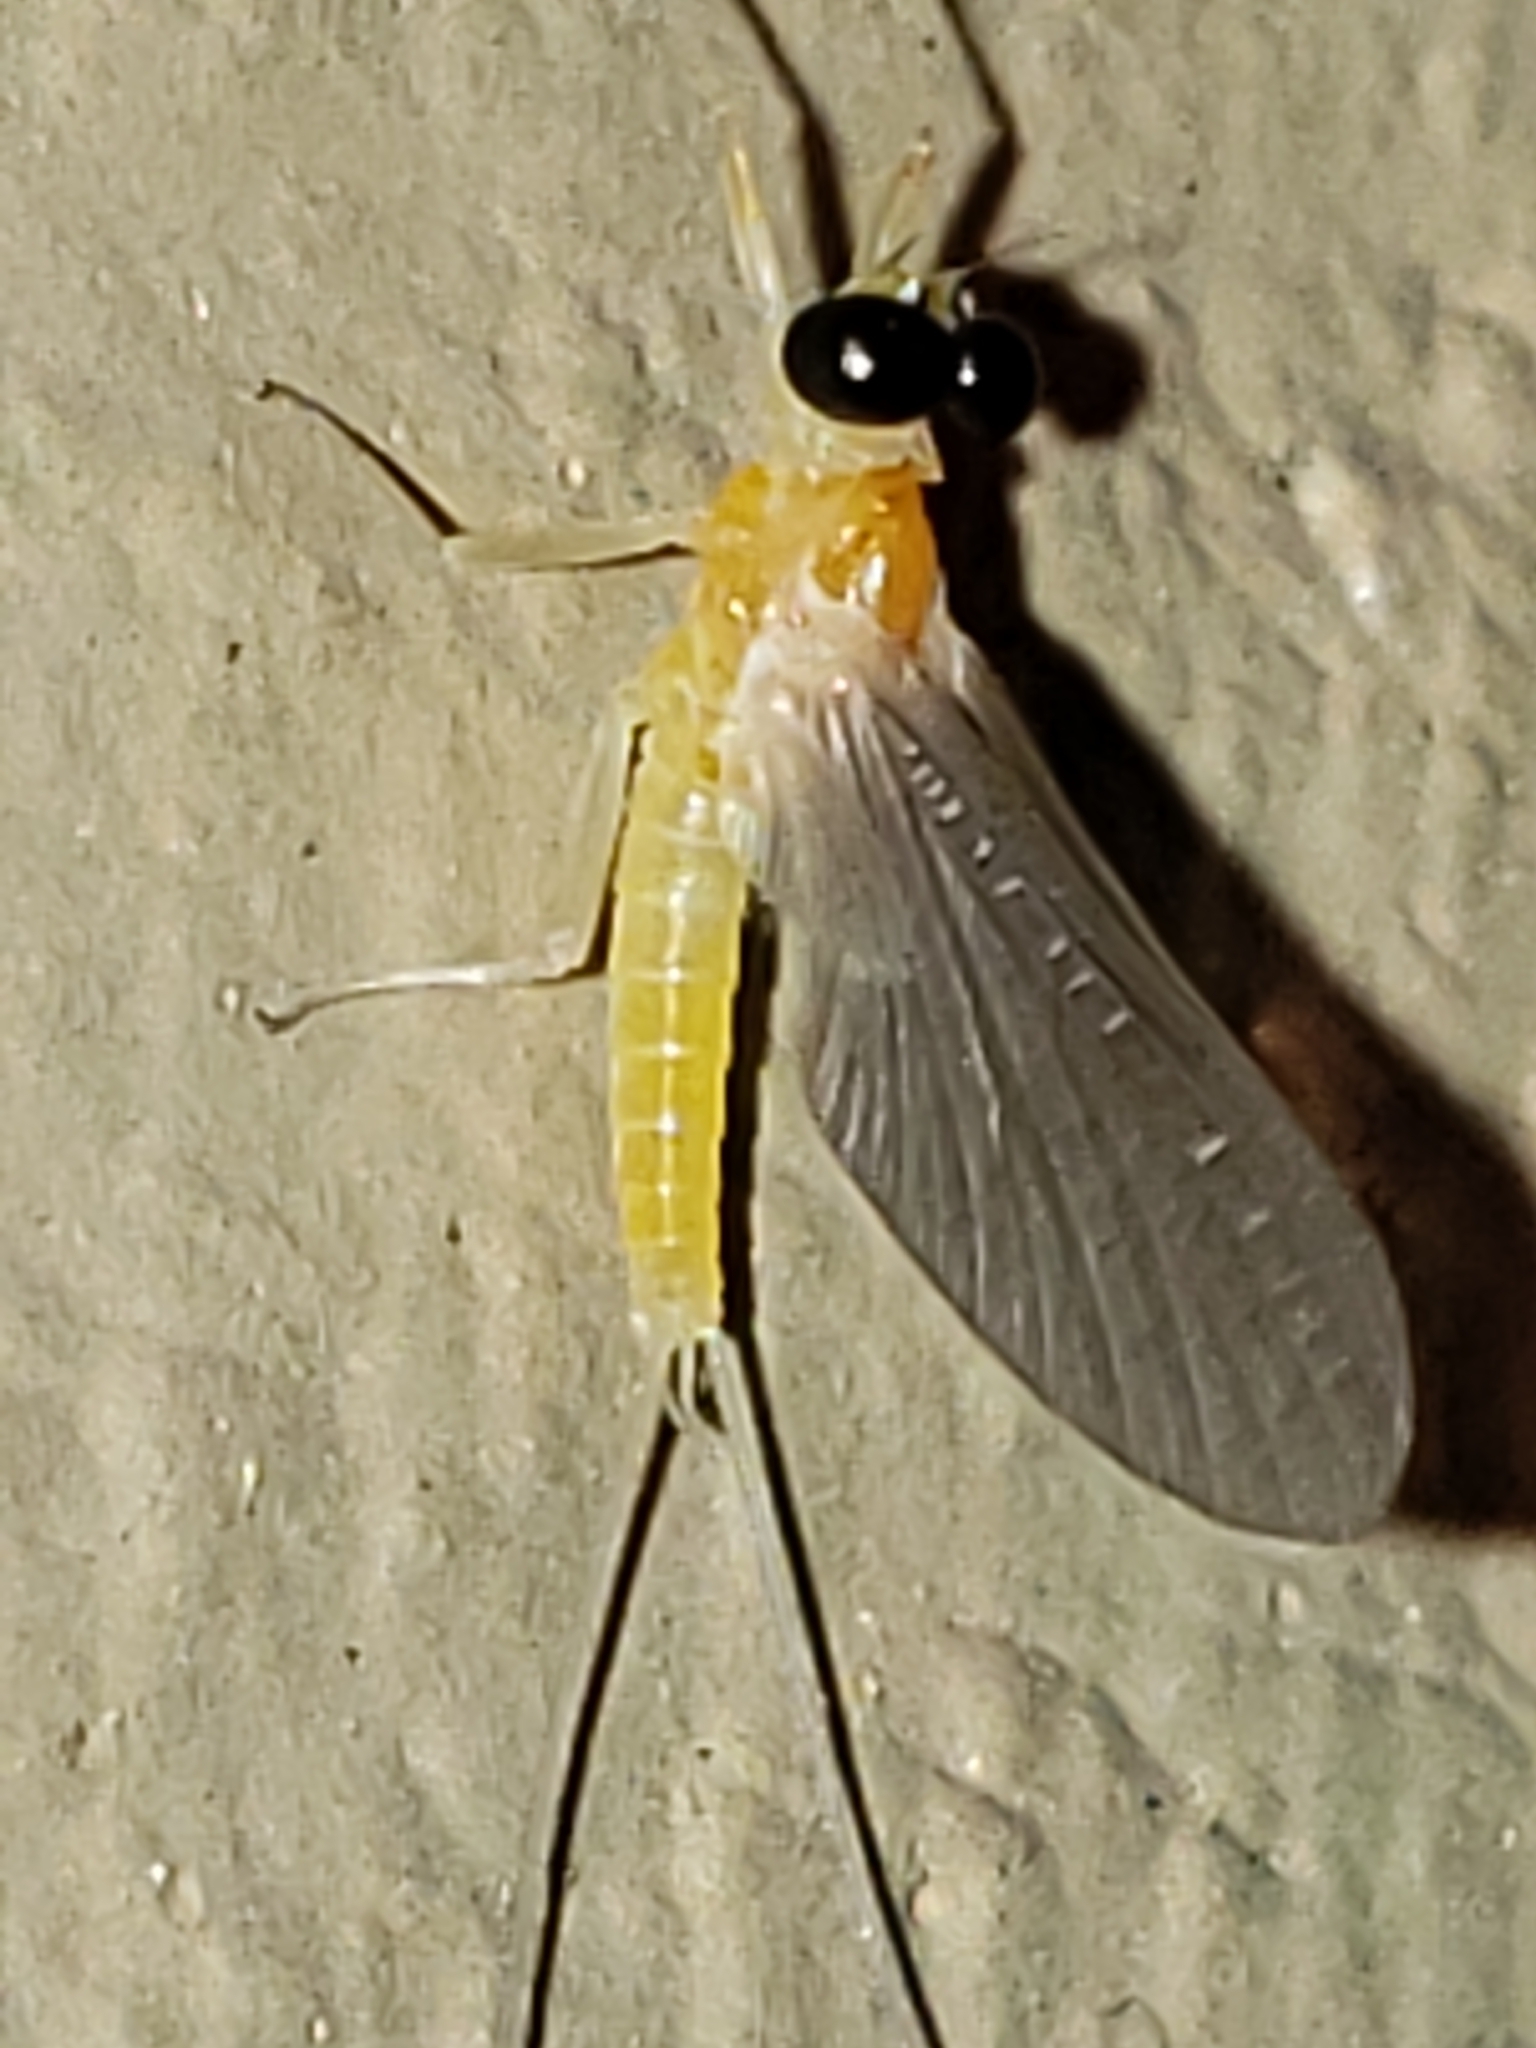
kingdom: Animalia
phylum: Arthropoda
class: Insecta
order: Ephemeroptera
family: Heptageniidae
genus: Nixe
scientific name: Nixe inconspicua
